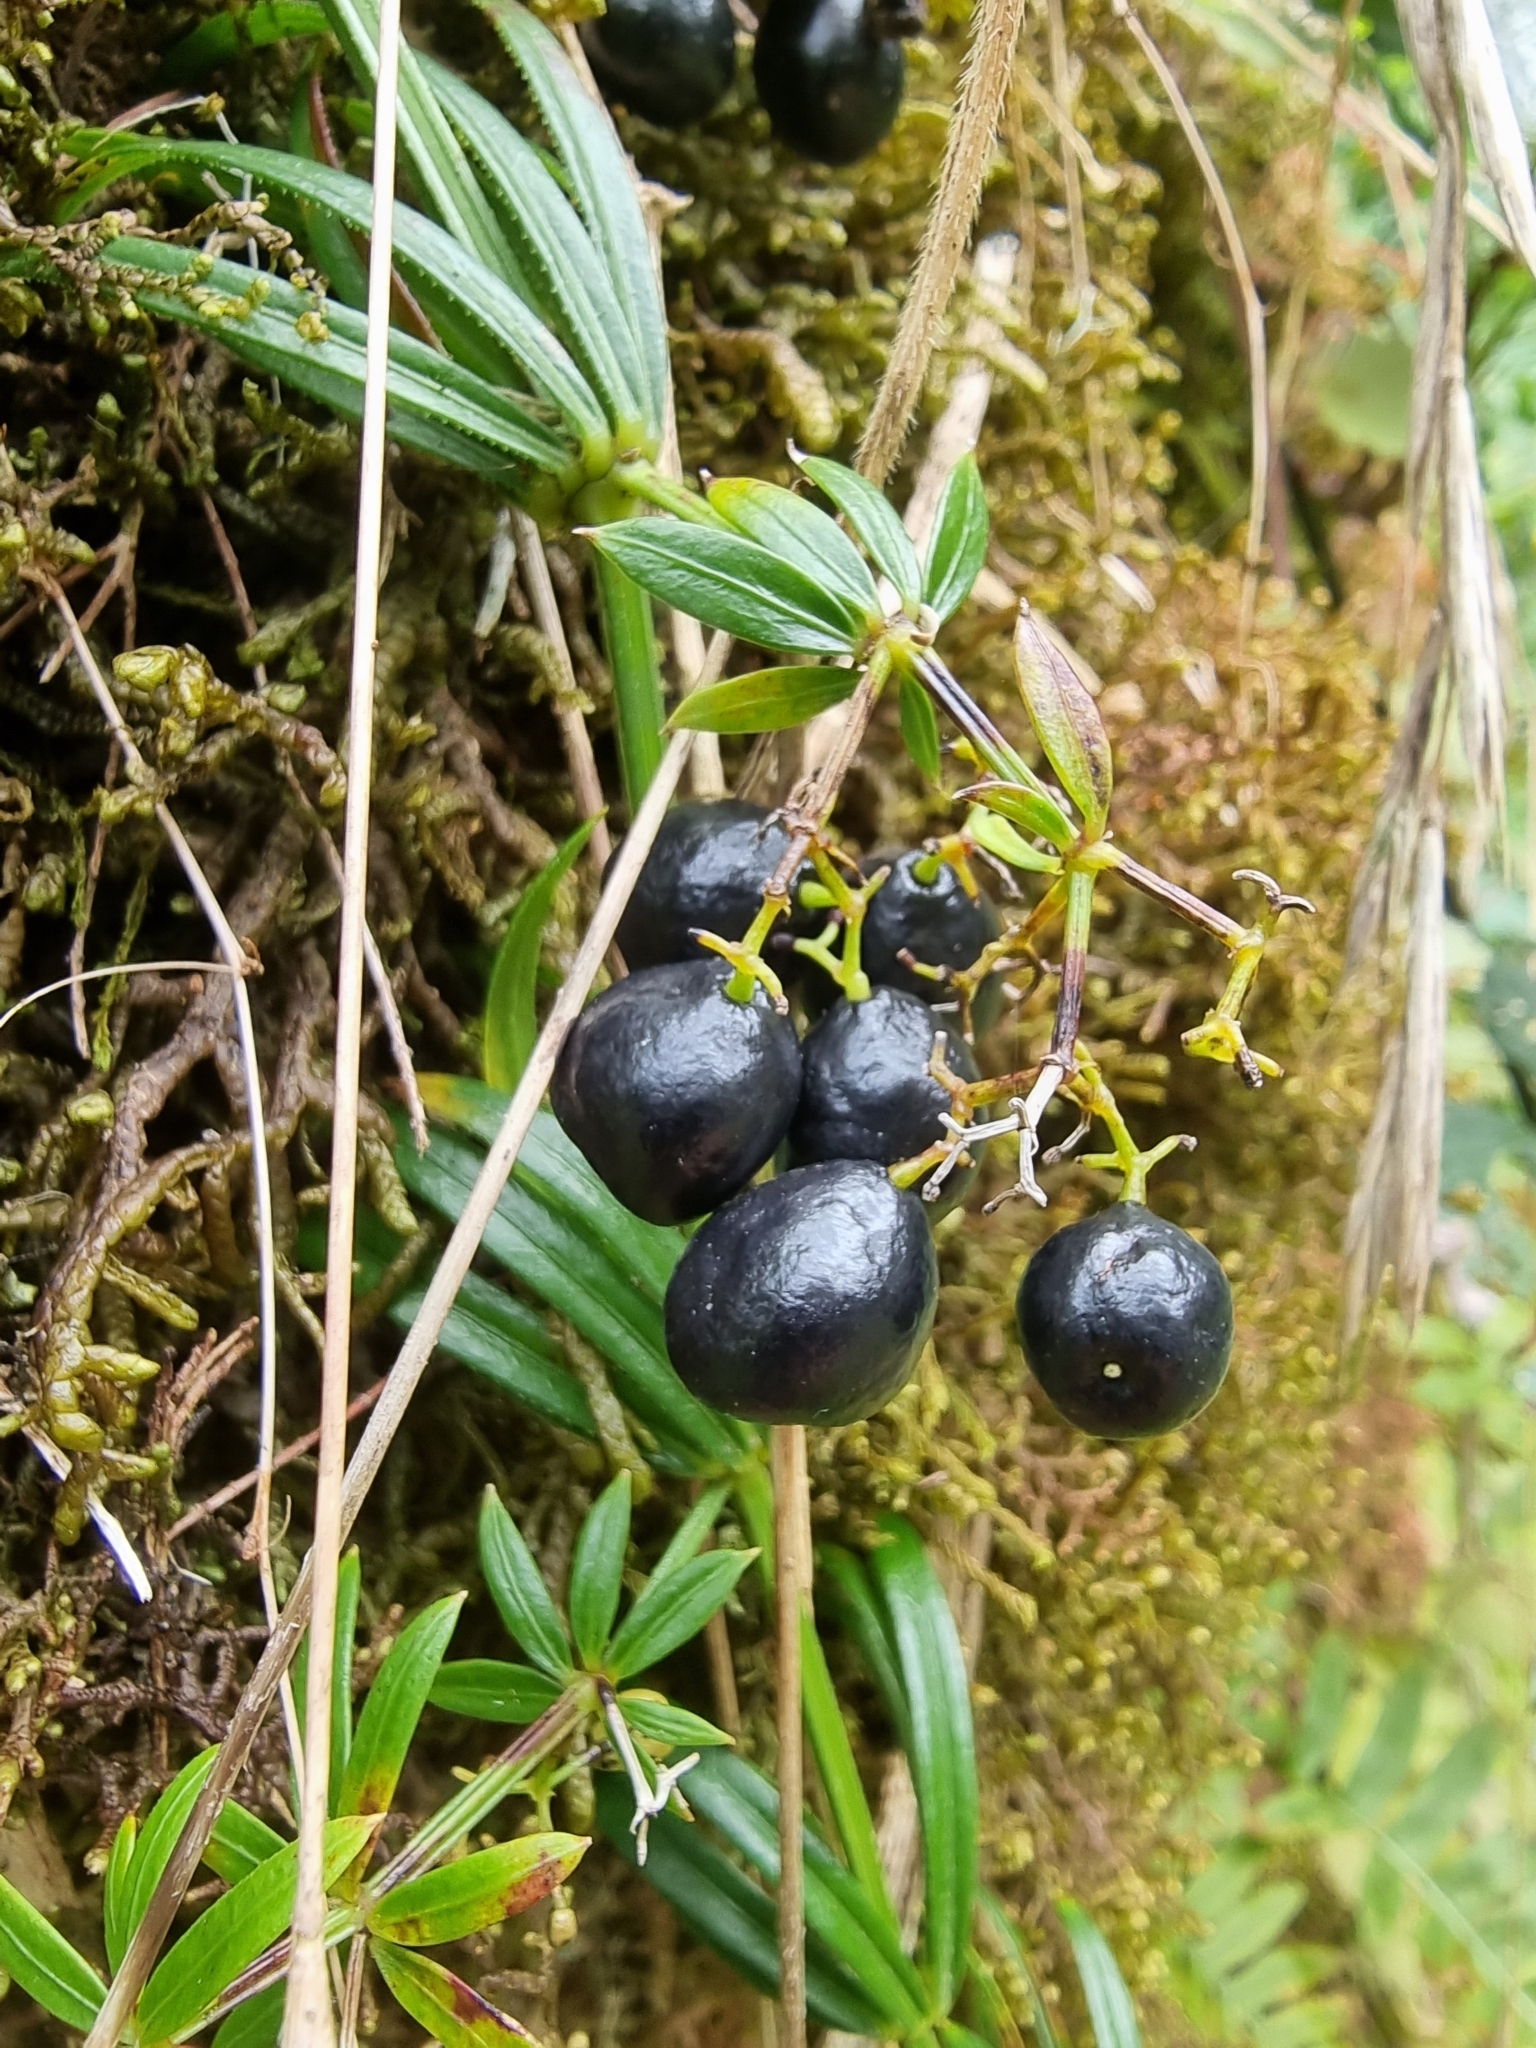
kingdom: Plantae
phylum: Tracheophyta
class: Magnoliopsida
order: Gentianales
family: Rubiaceae
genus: Rubia
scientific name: Rubia occidens
